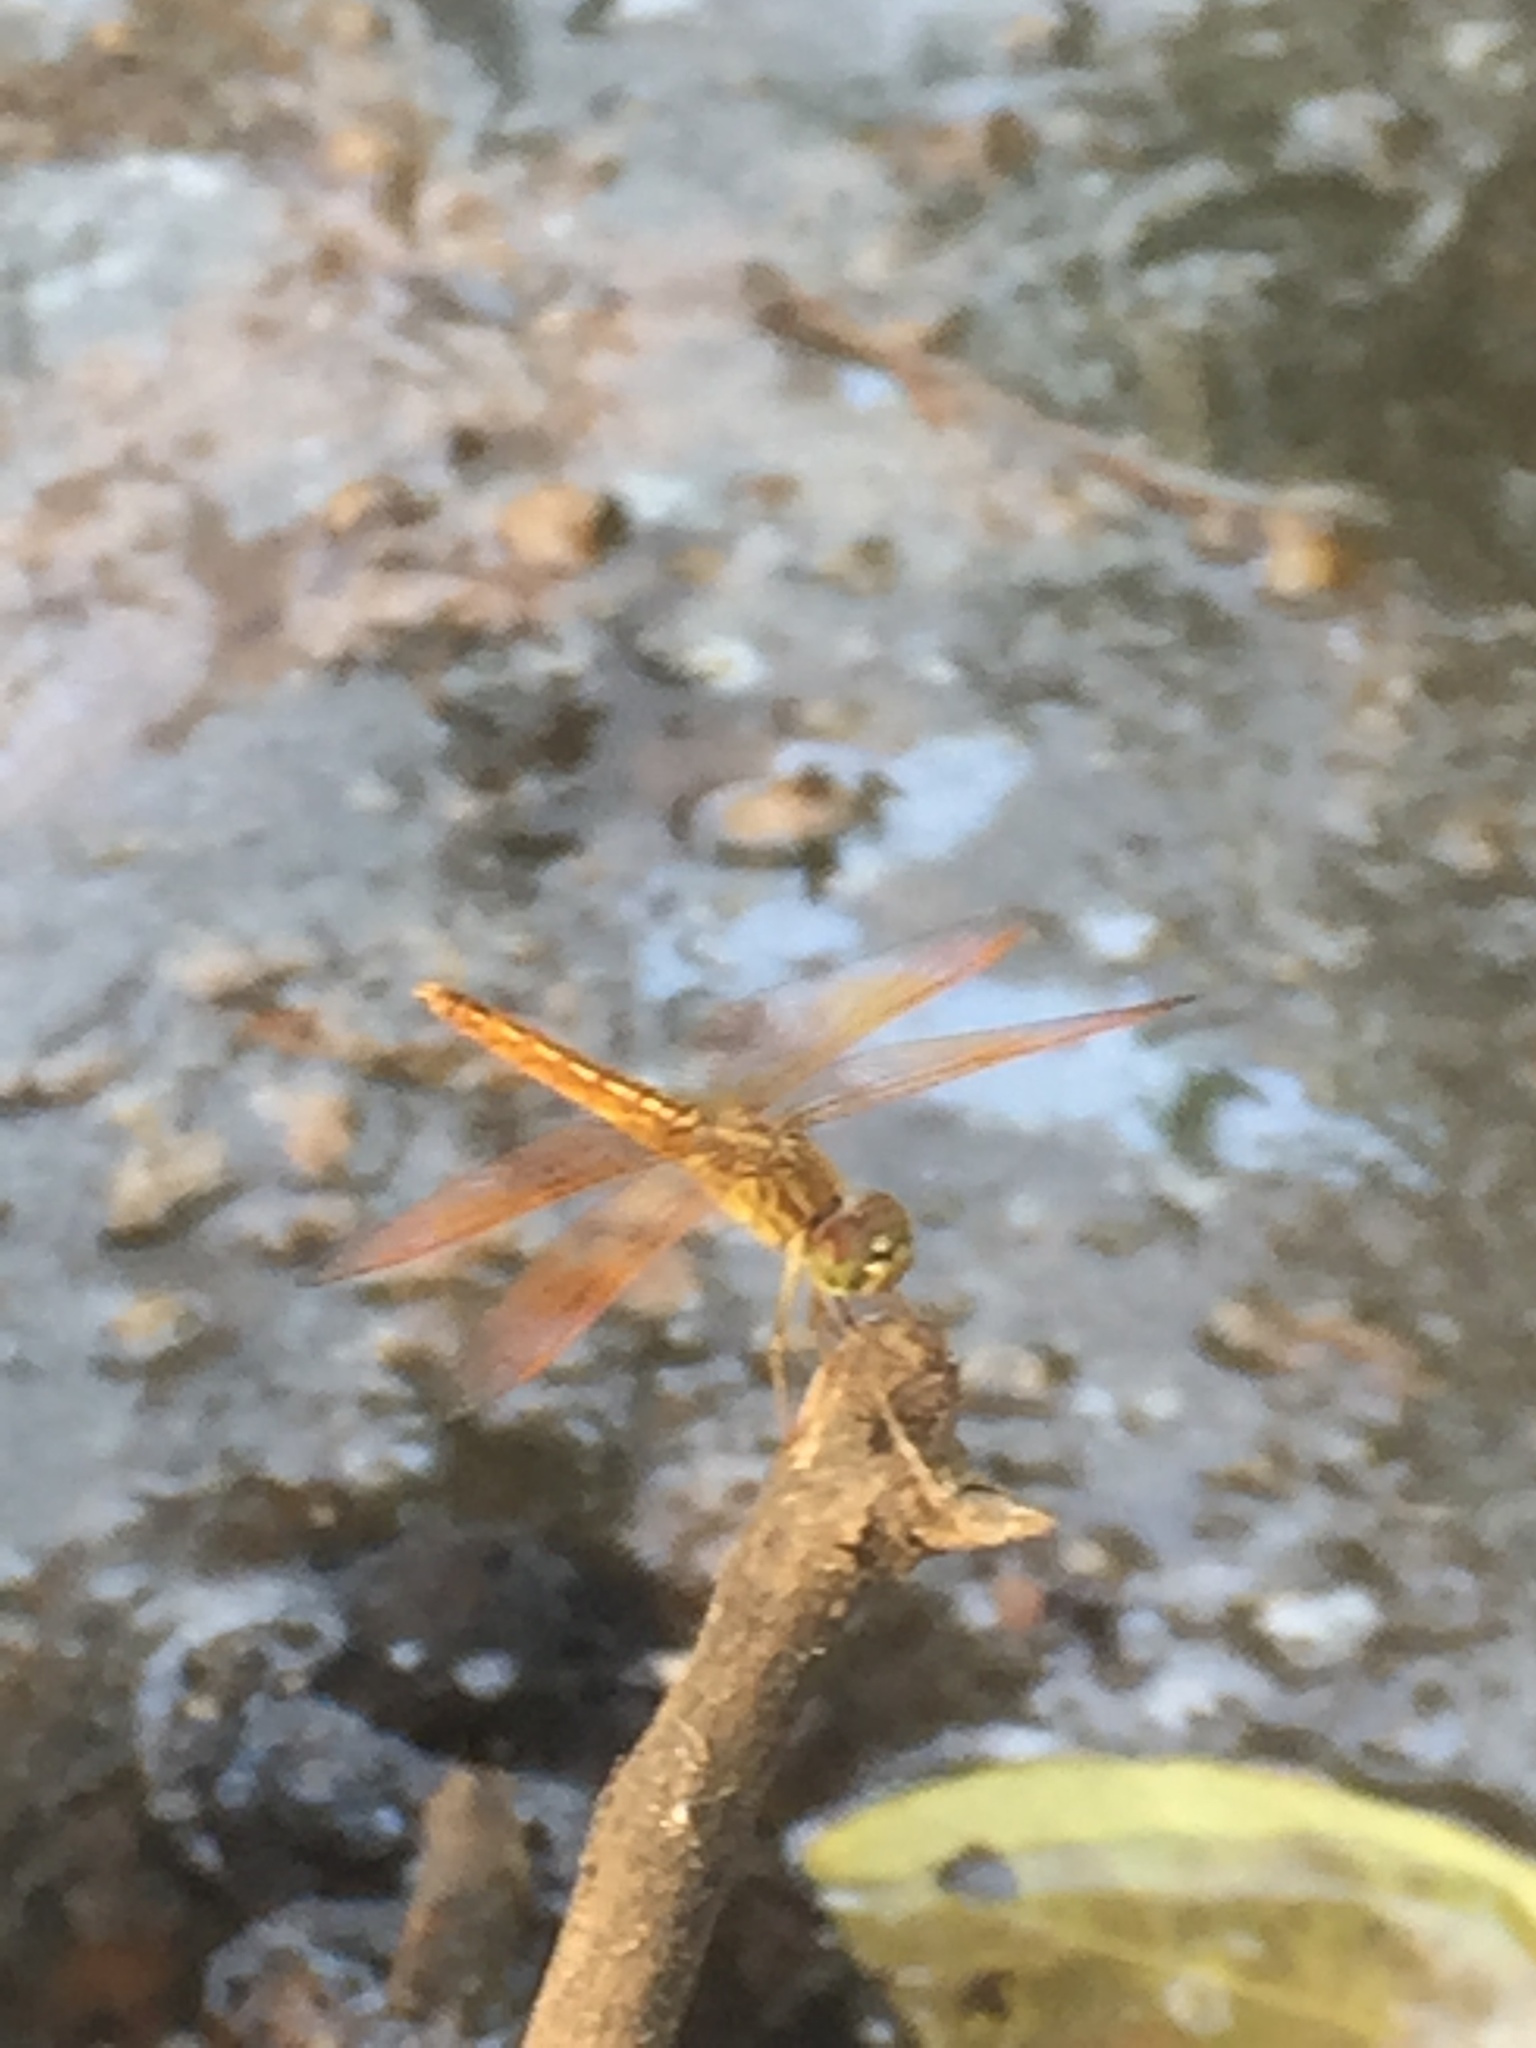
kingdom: Animalia
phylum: Arthropoda
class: Insecta
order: Odonata
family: Libellulidae
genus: Brachythemis
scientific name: Brachythemis contaminata
